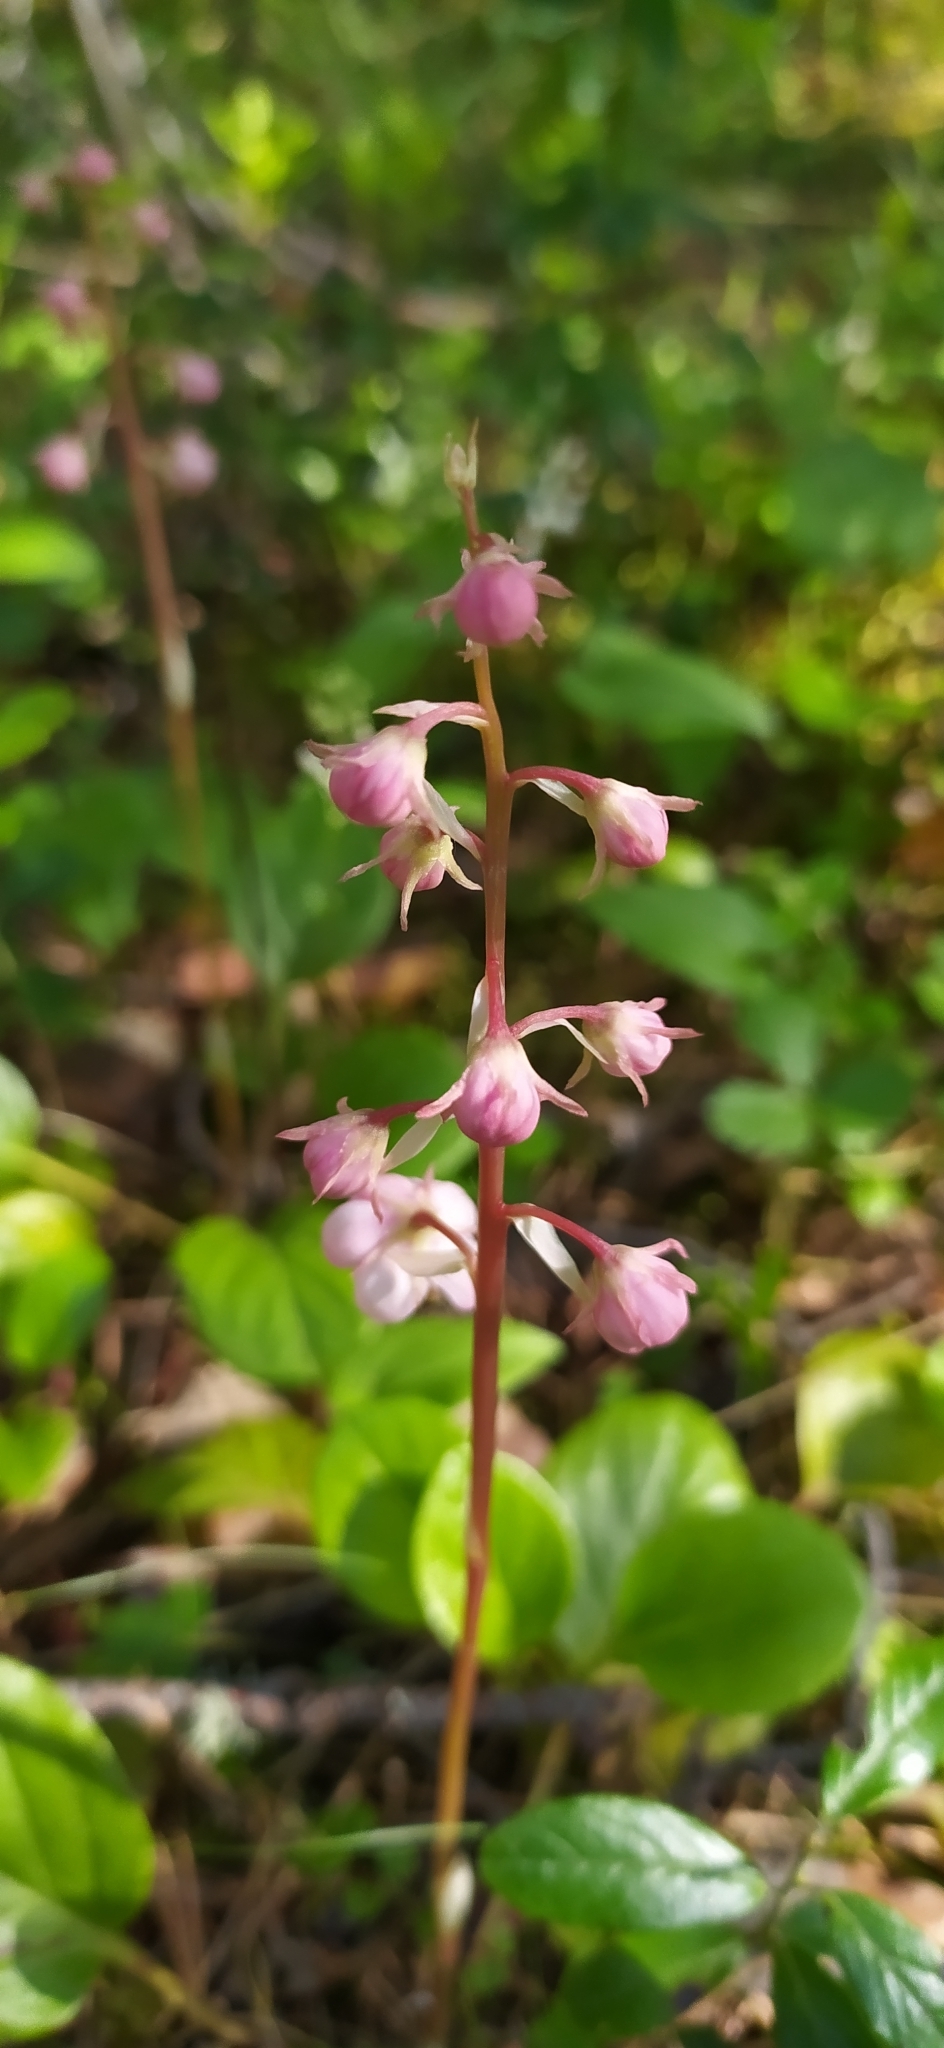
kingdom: Plantae
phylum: Tracheophyta
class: Magnoliopsida
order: Ericales
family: Ericaceae
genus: Pyrola
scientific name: Pyrola asarifolia
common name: Bog wintergreen
